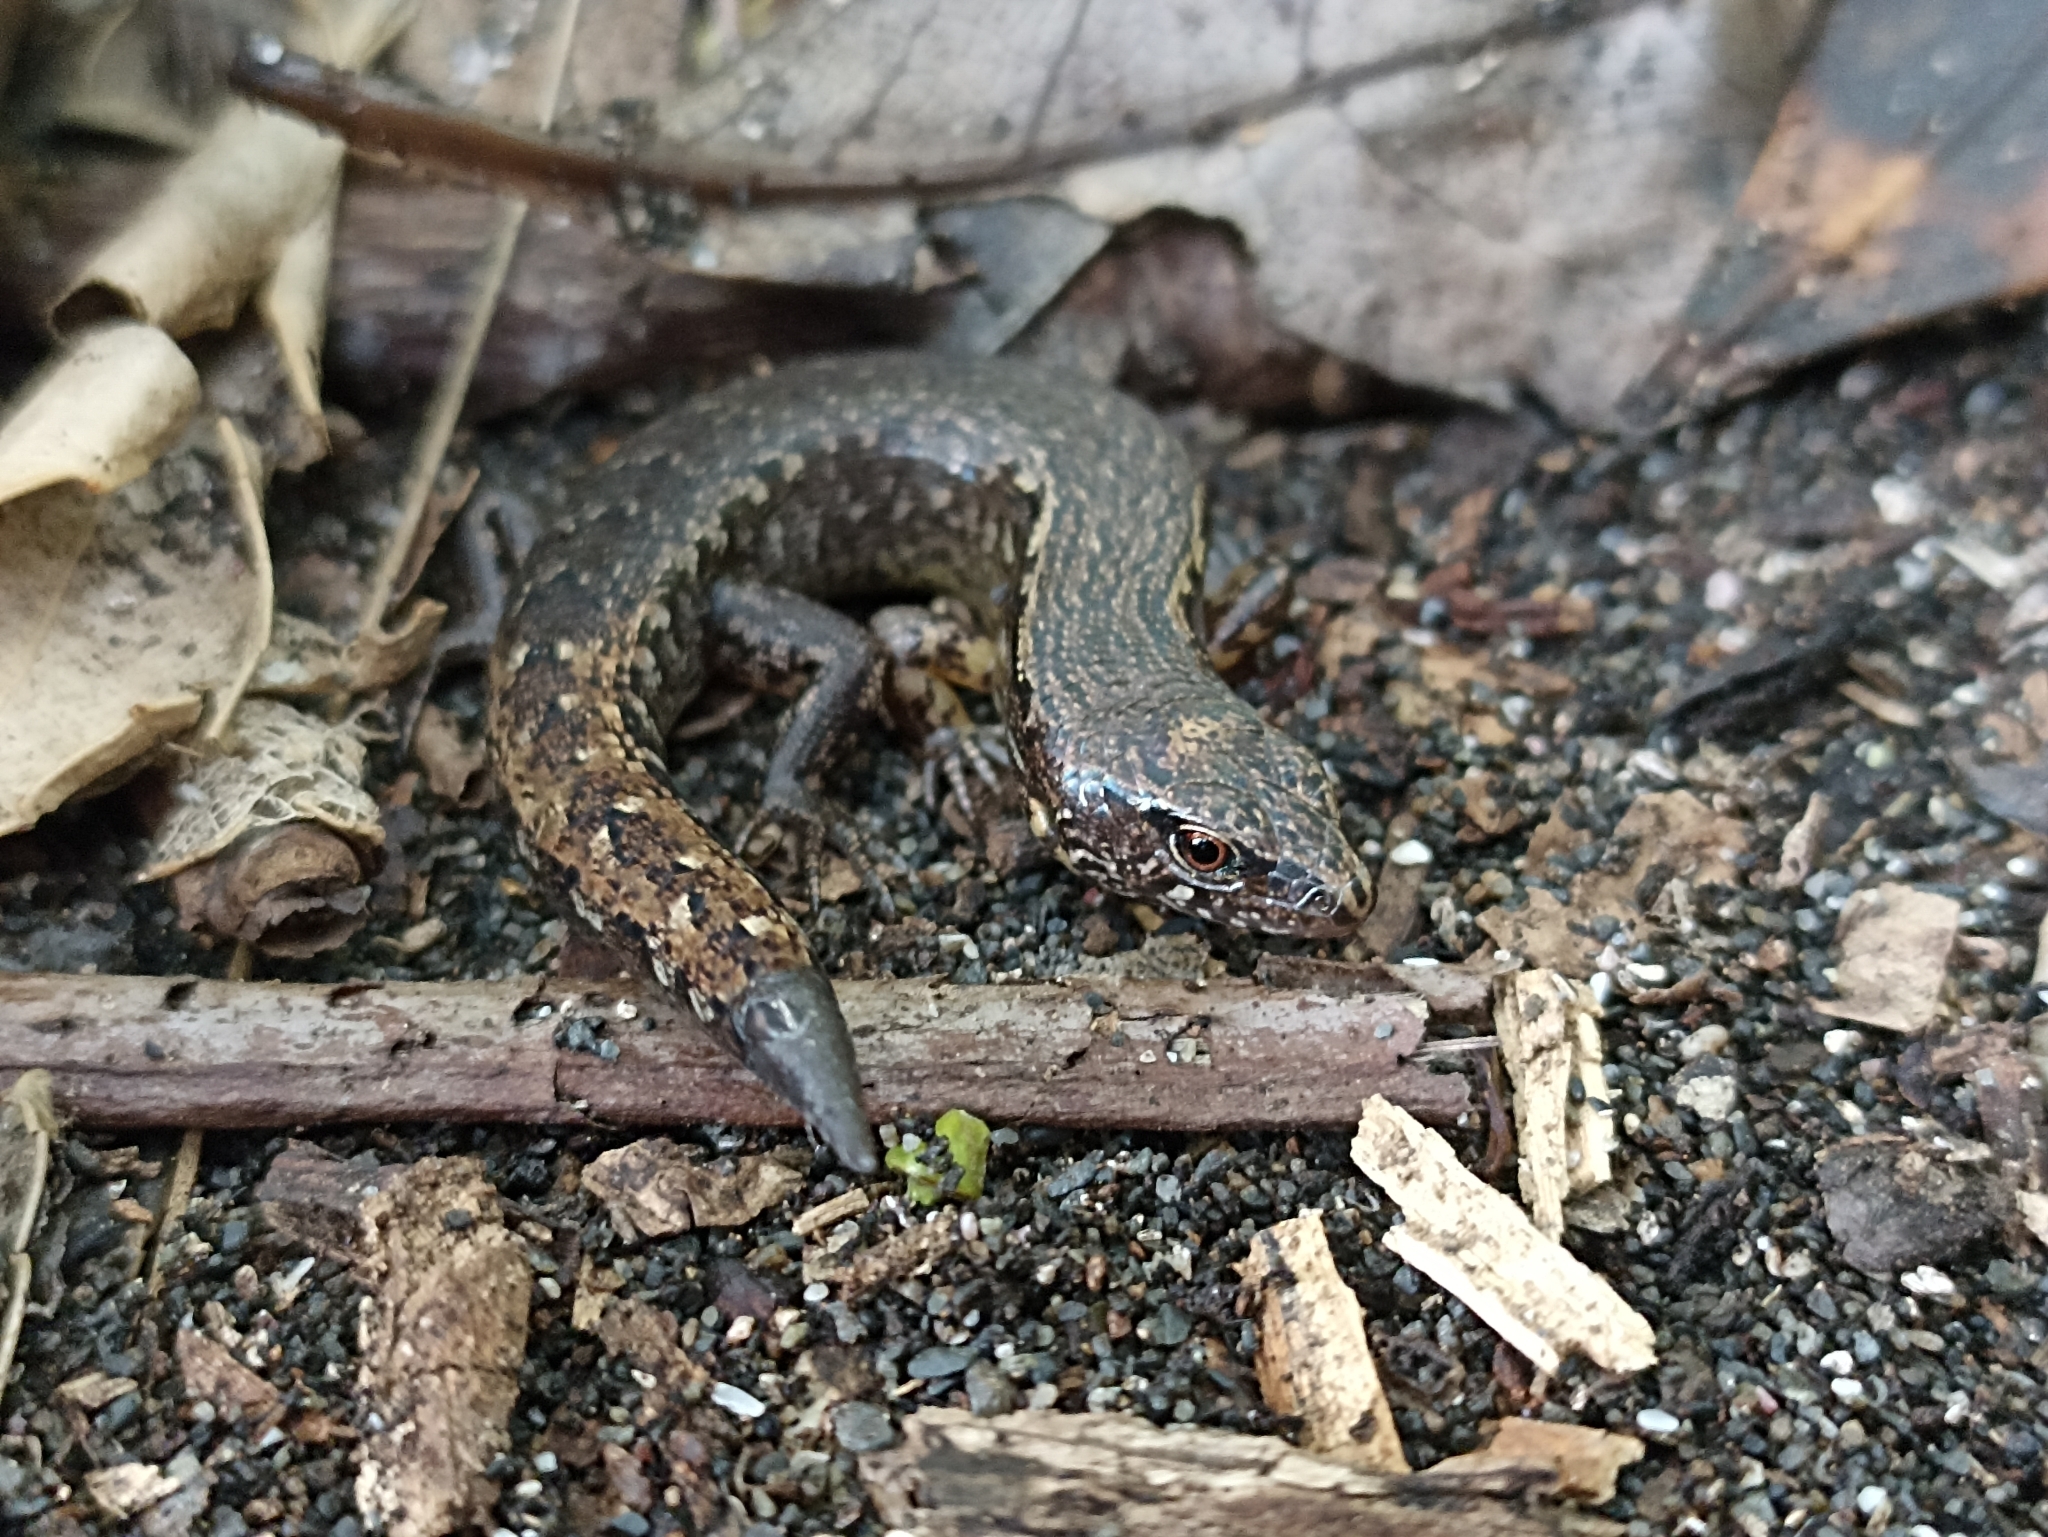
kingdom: Animalia
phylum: Chordata
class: Squamata
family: Scincidae
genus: Oligosoma
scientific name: Oligosoma ornatum
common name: Gray's ornate skink
